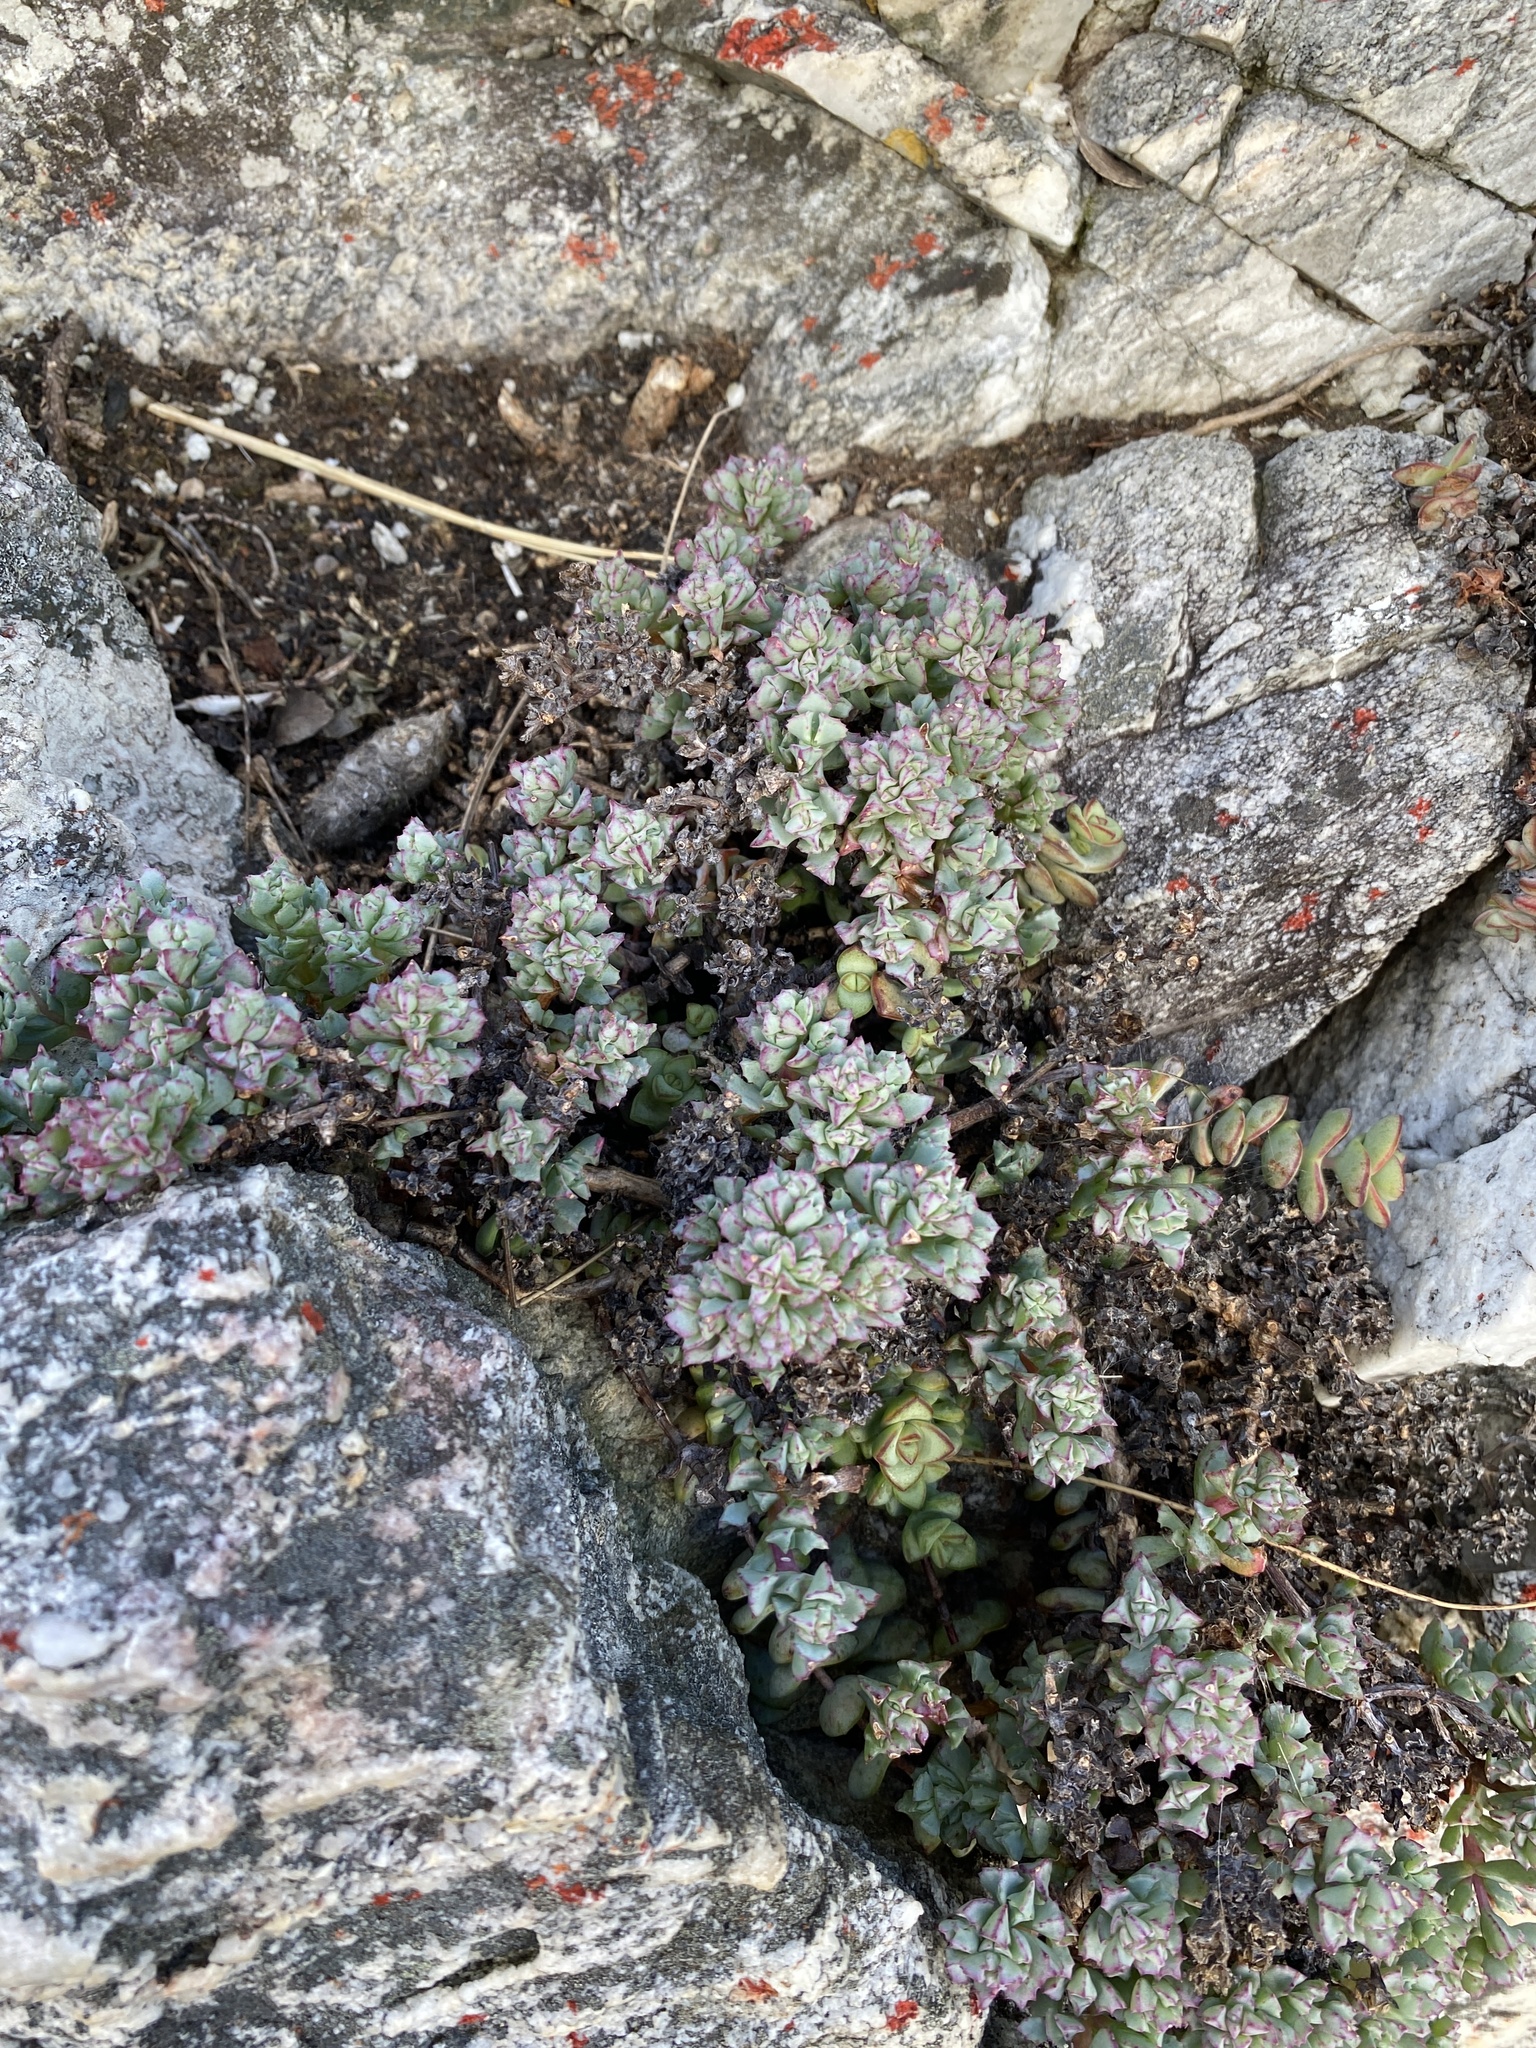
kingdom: Plantae
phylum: Tracheophyta
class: Magnoliopsida
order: Caryophyllales
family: Aizoaceae
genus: Oscularia
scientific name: Oscularia deltoides
